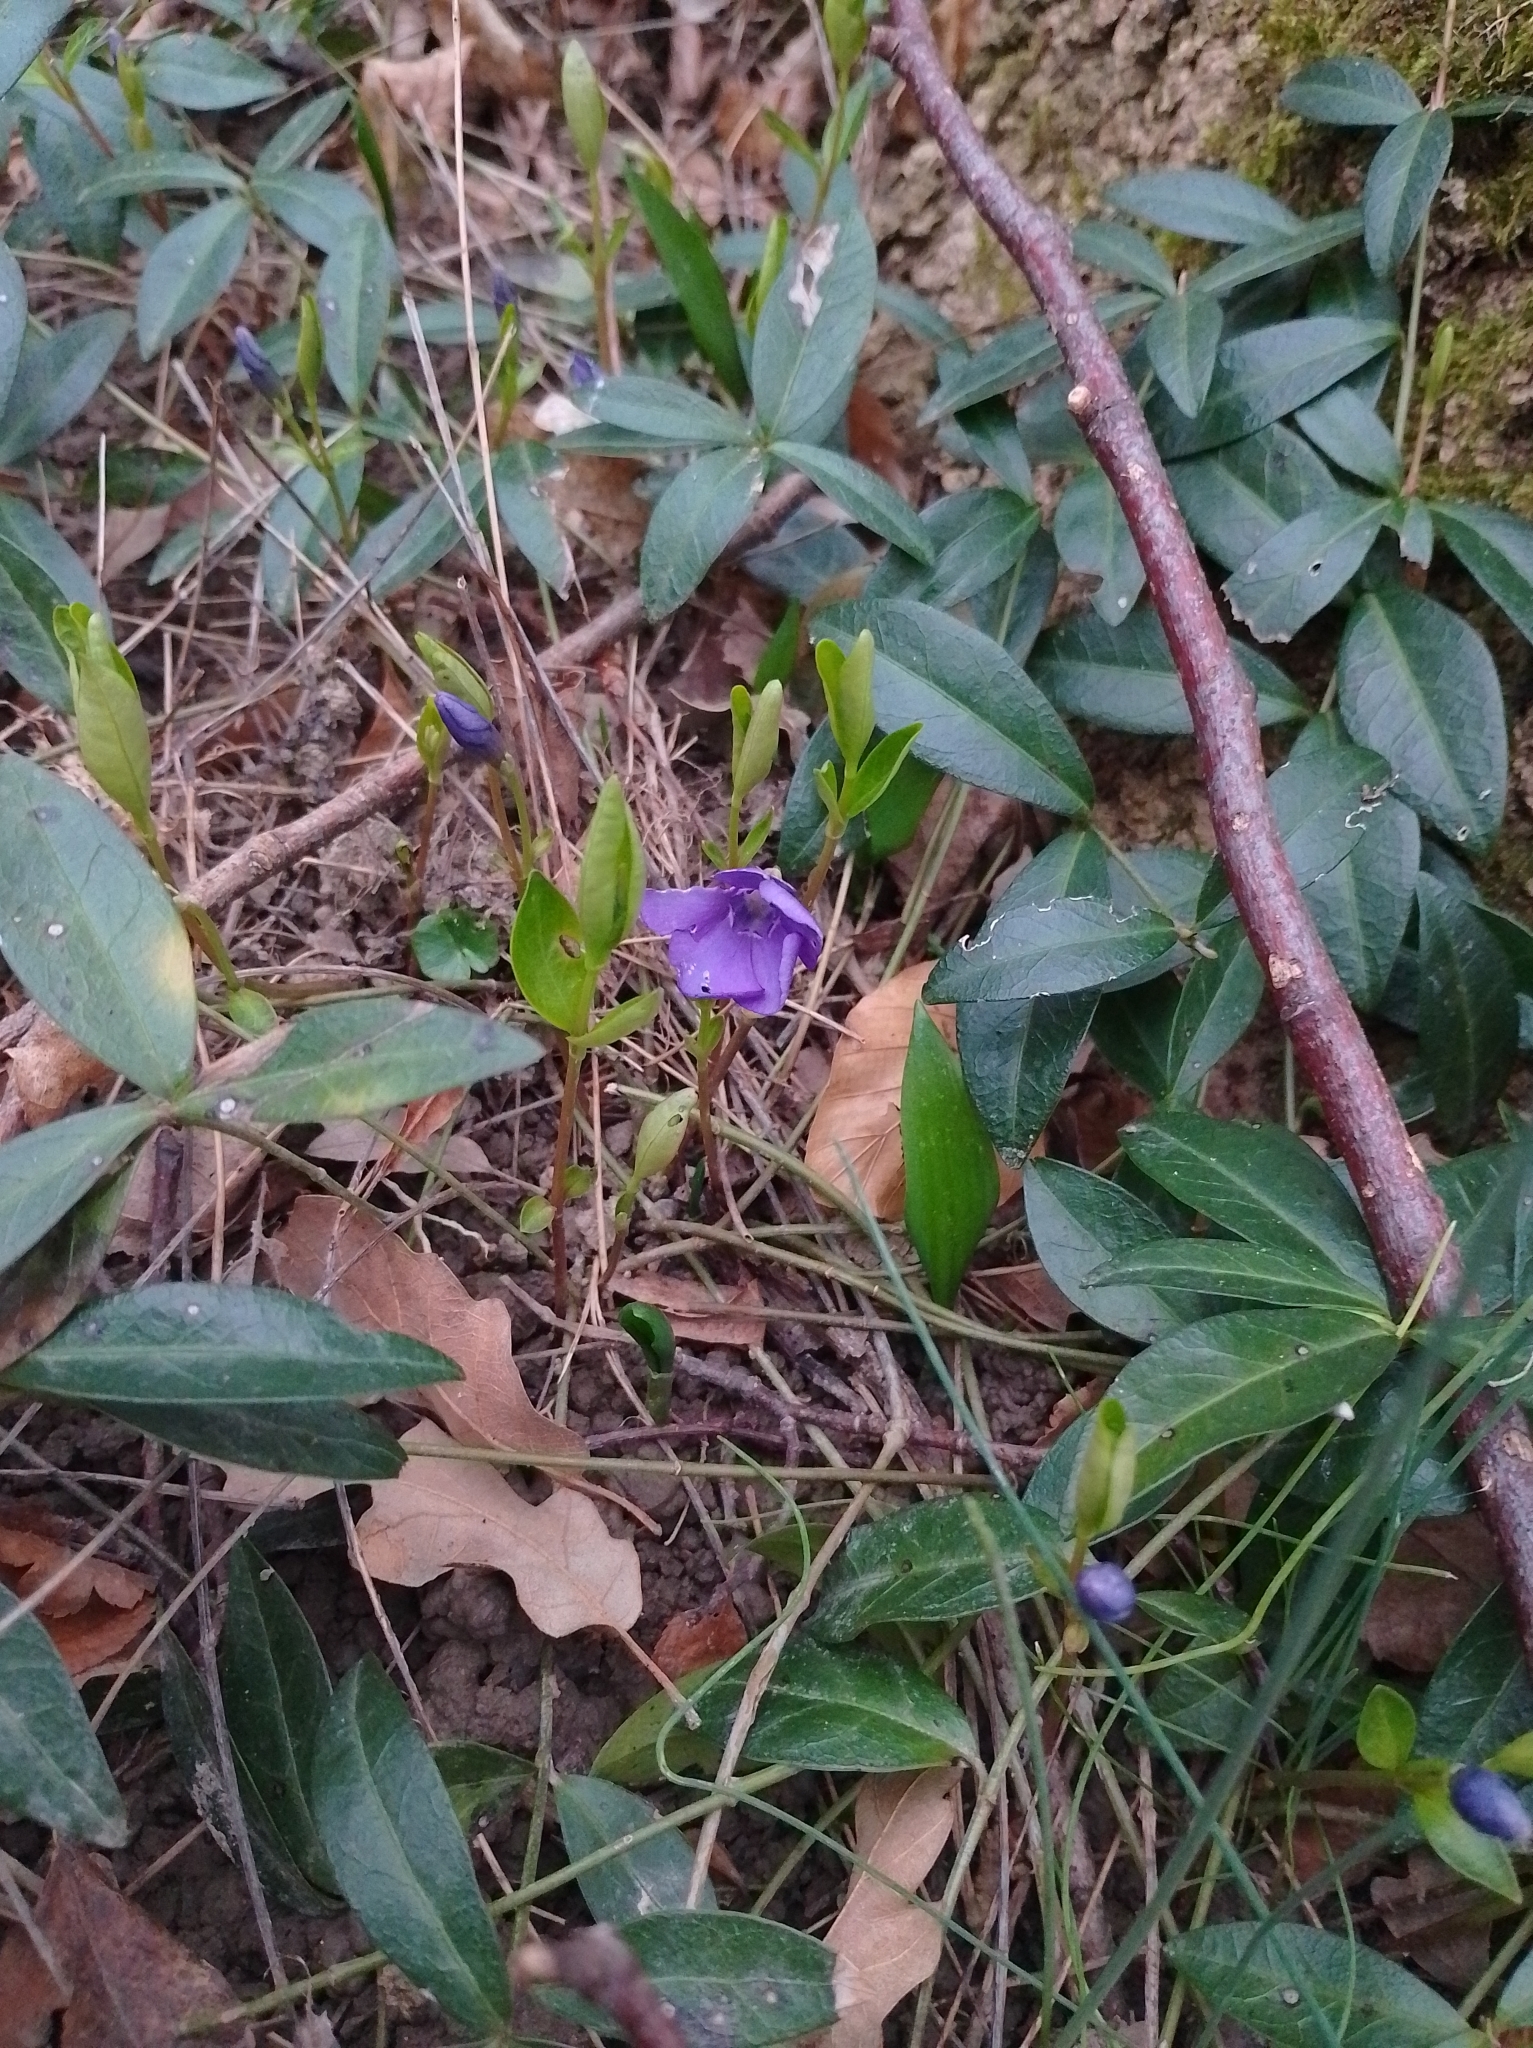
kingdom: Plantae
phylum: Tracheophyta
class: Magnoliopsida
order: Gentianales
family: Apocynaceae
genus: Vinca
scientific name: Vinca minor
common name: Lesser periwinkle
